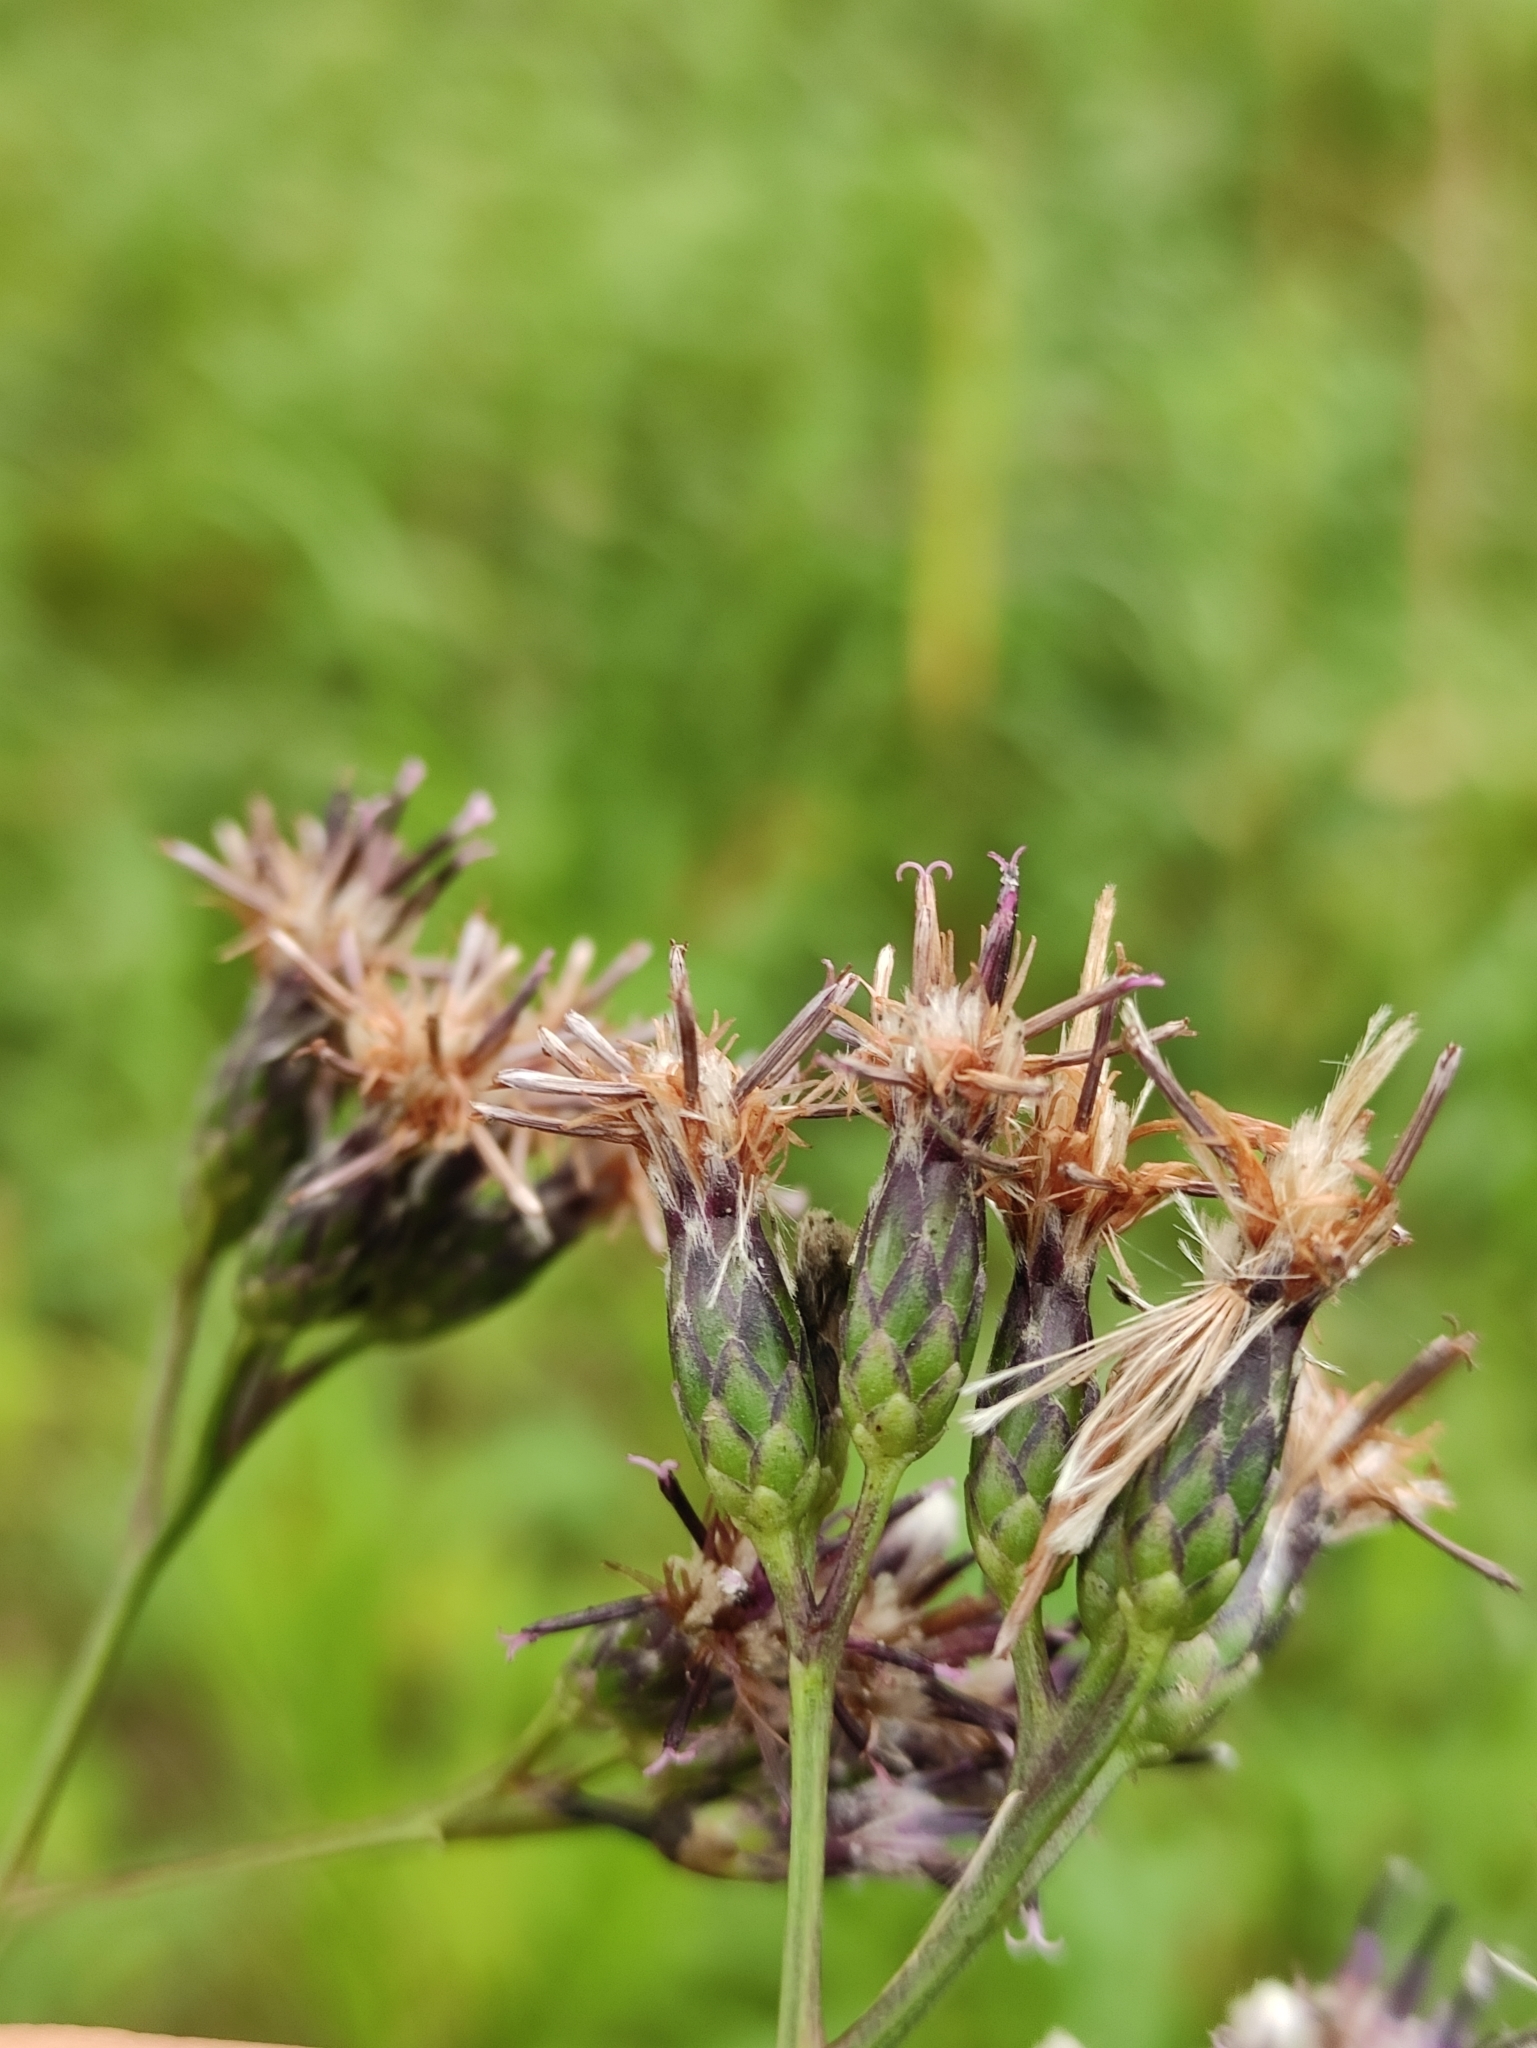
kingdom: Plantae
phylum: Tracheophyta
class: Magnoliopsida
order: Asterales
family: Asteraceae
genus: Saussurea
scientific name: Saussurea parviflora
